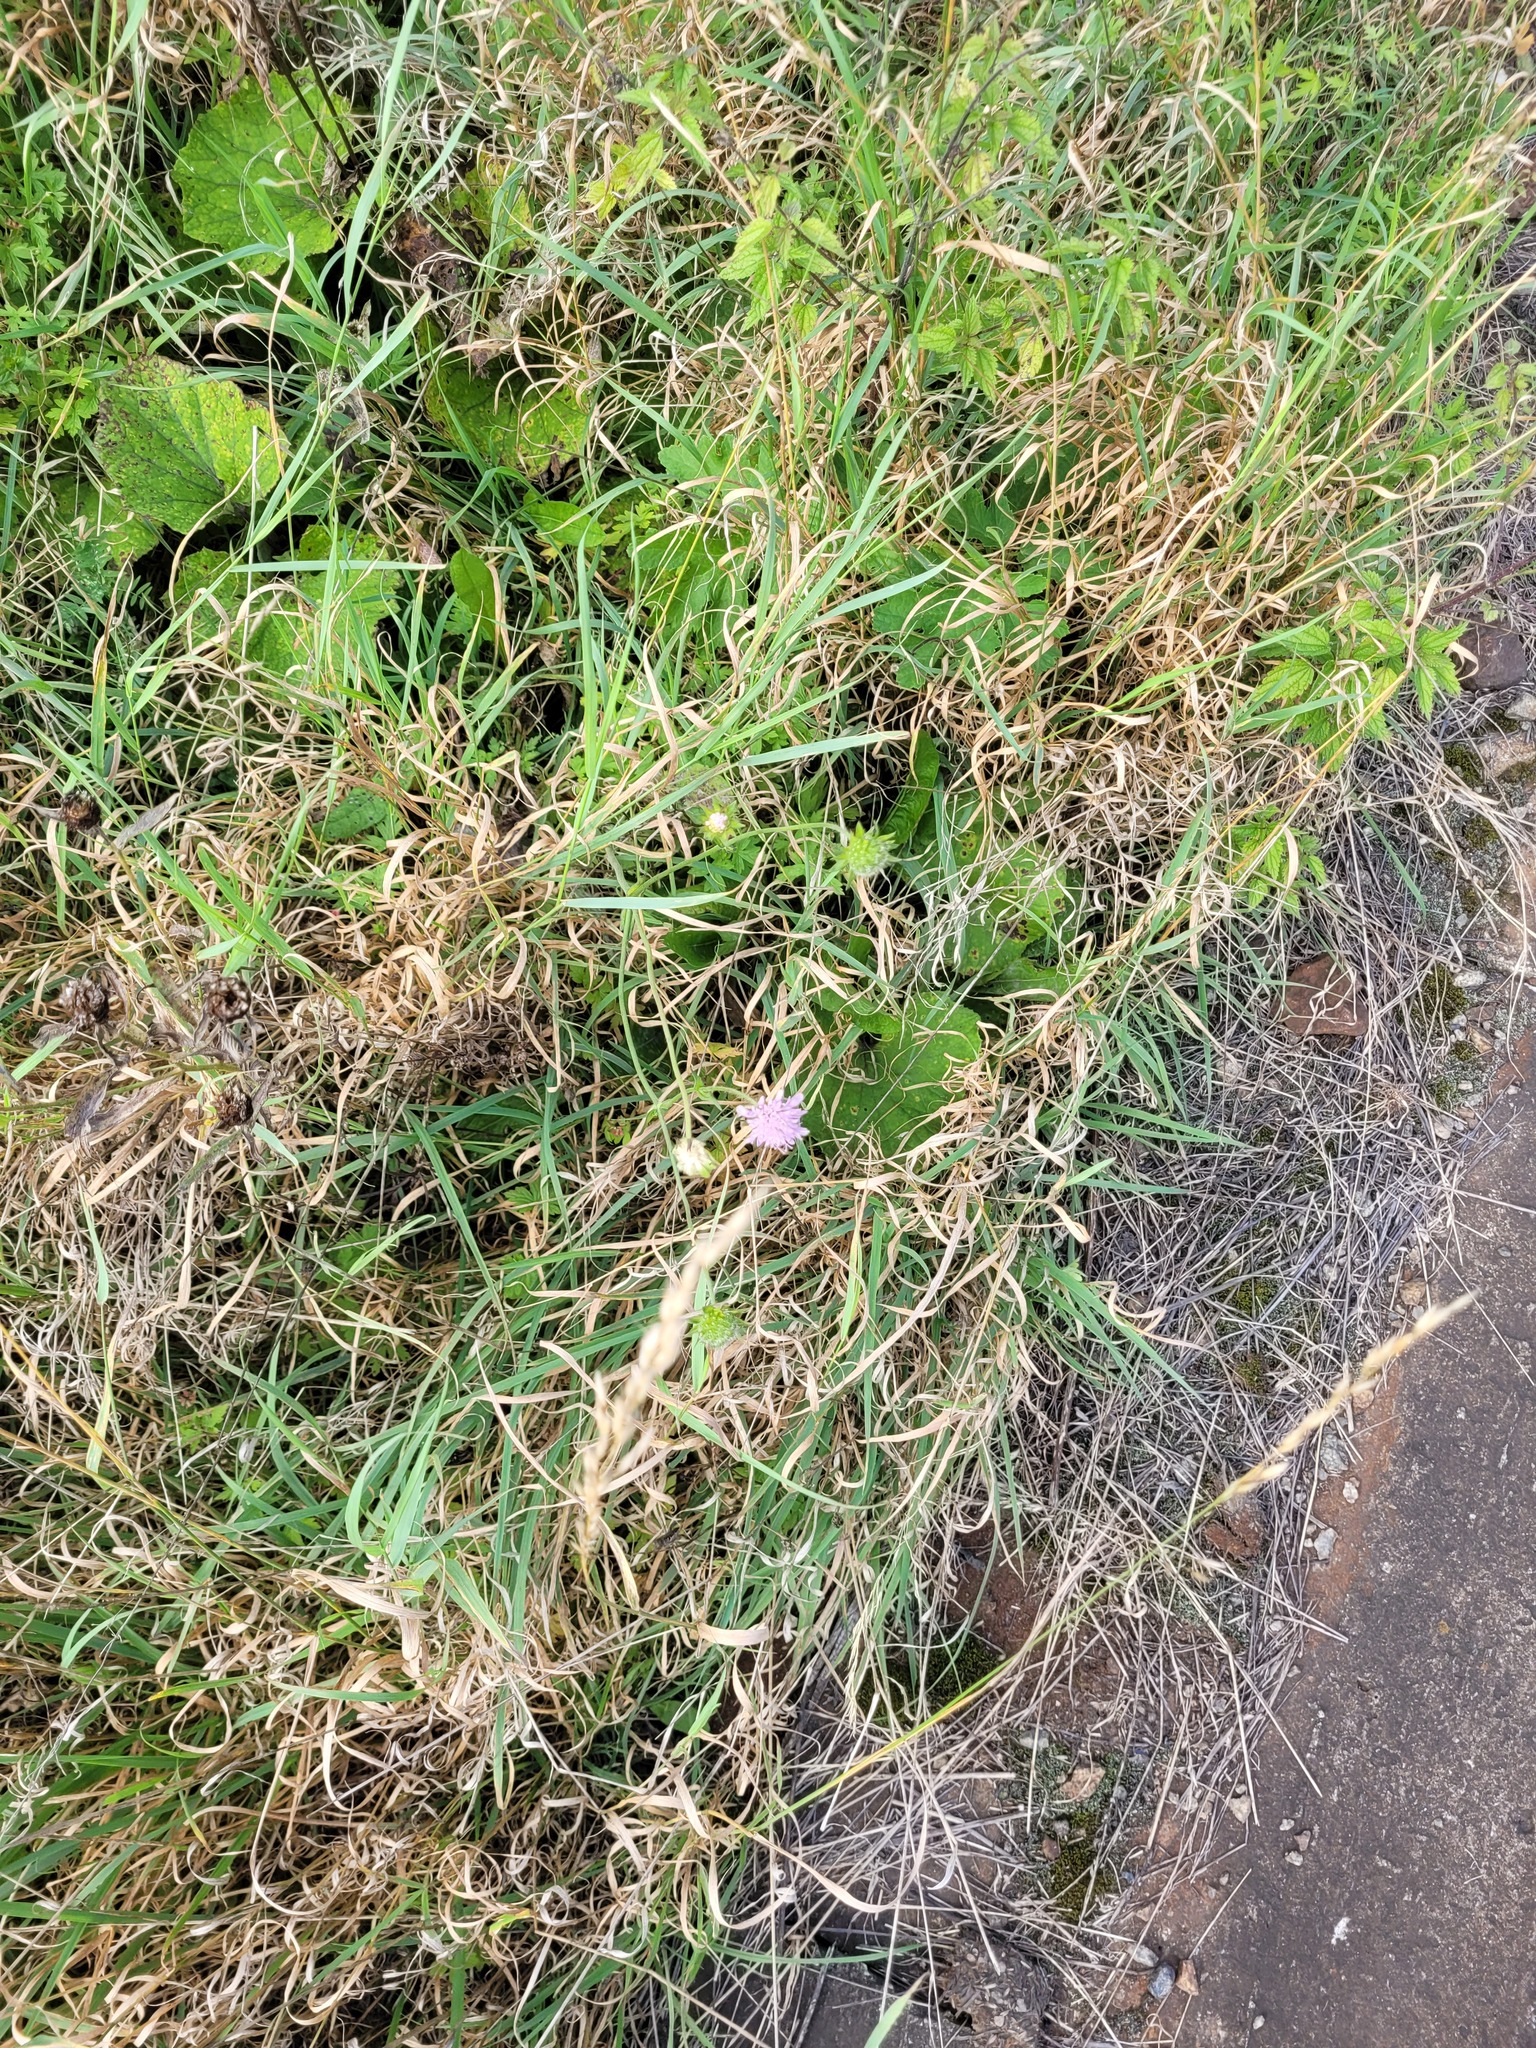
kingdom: Plantae
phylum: Tracheophyta
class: Magnoliopsida
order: Dipsacales
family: Caprifoliaceae
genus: Knautia
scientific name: Knautia arvensis
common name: Field scabiosa
